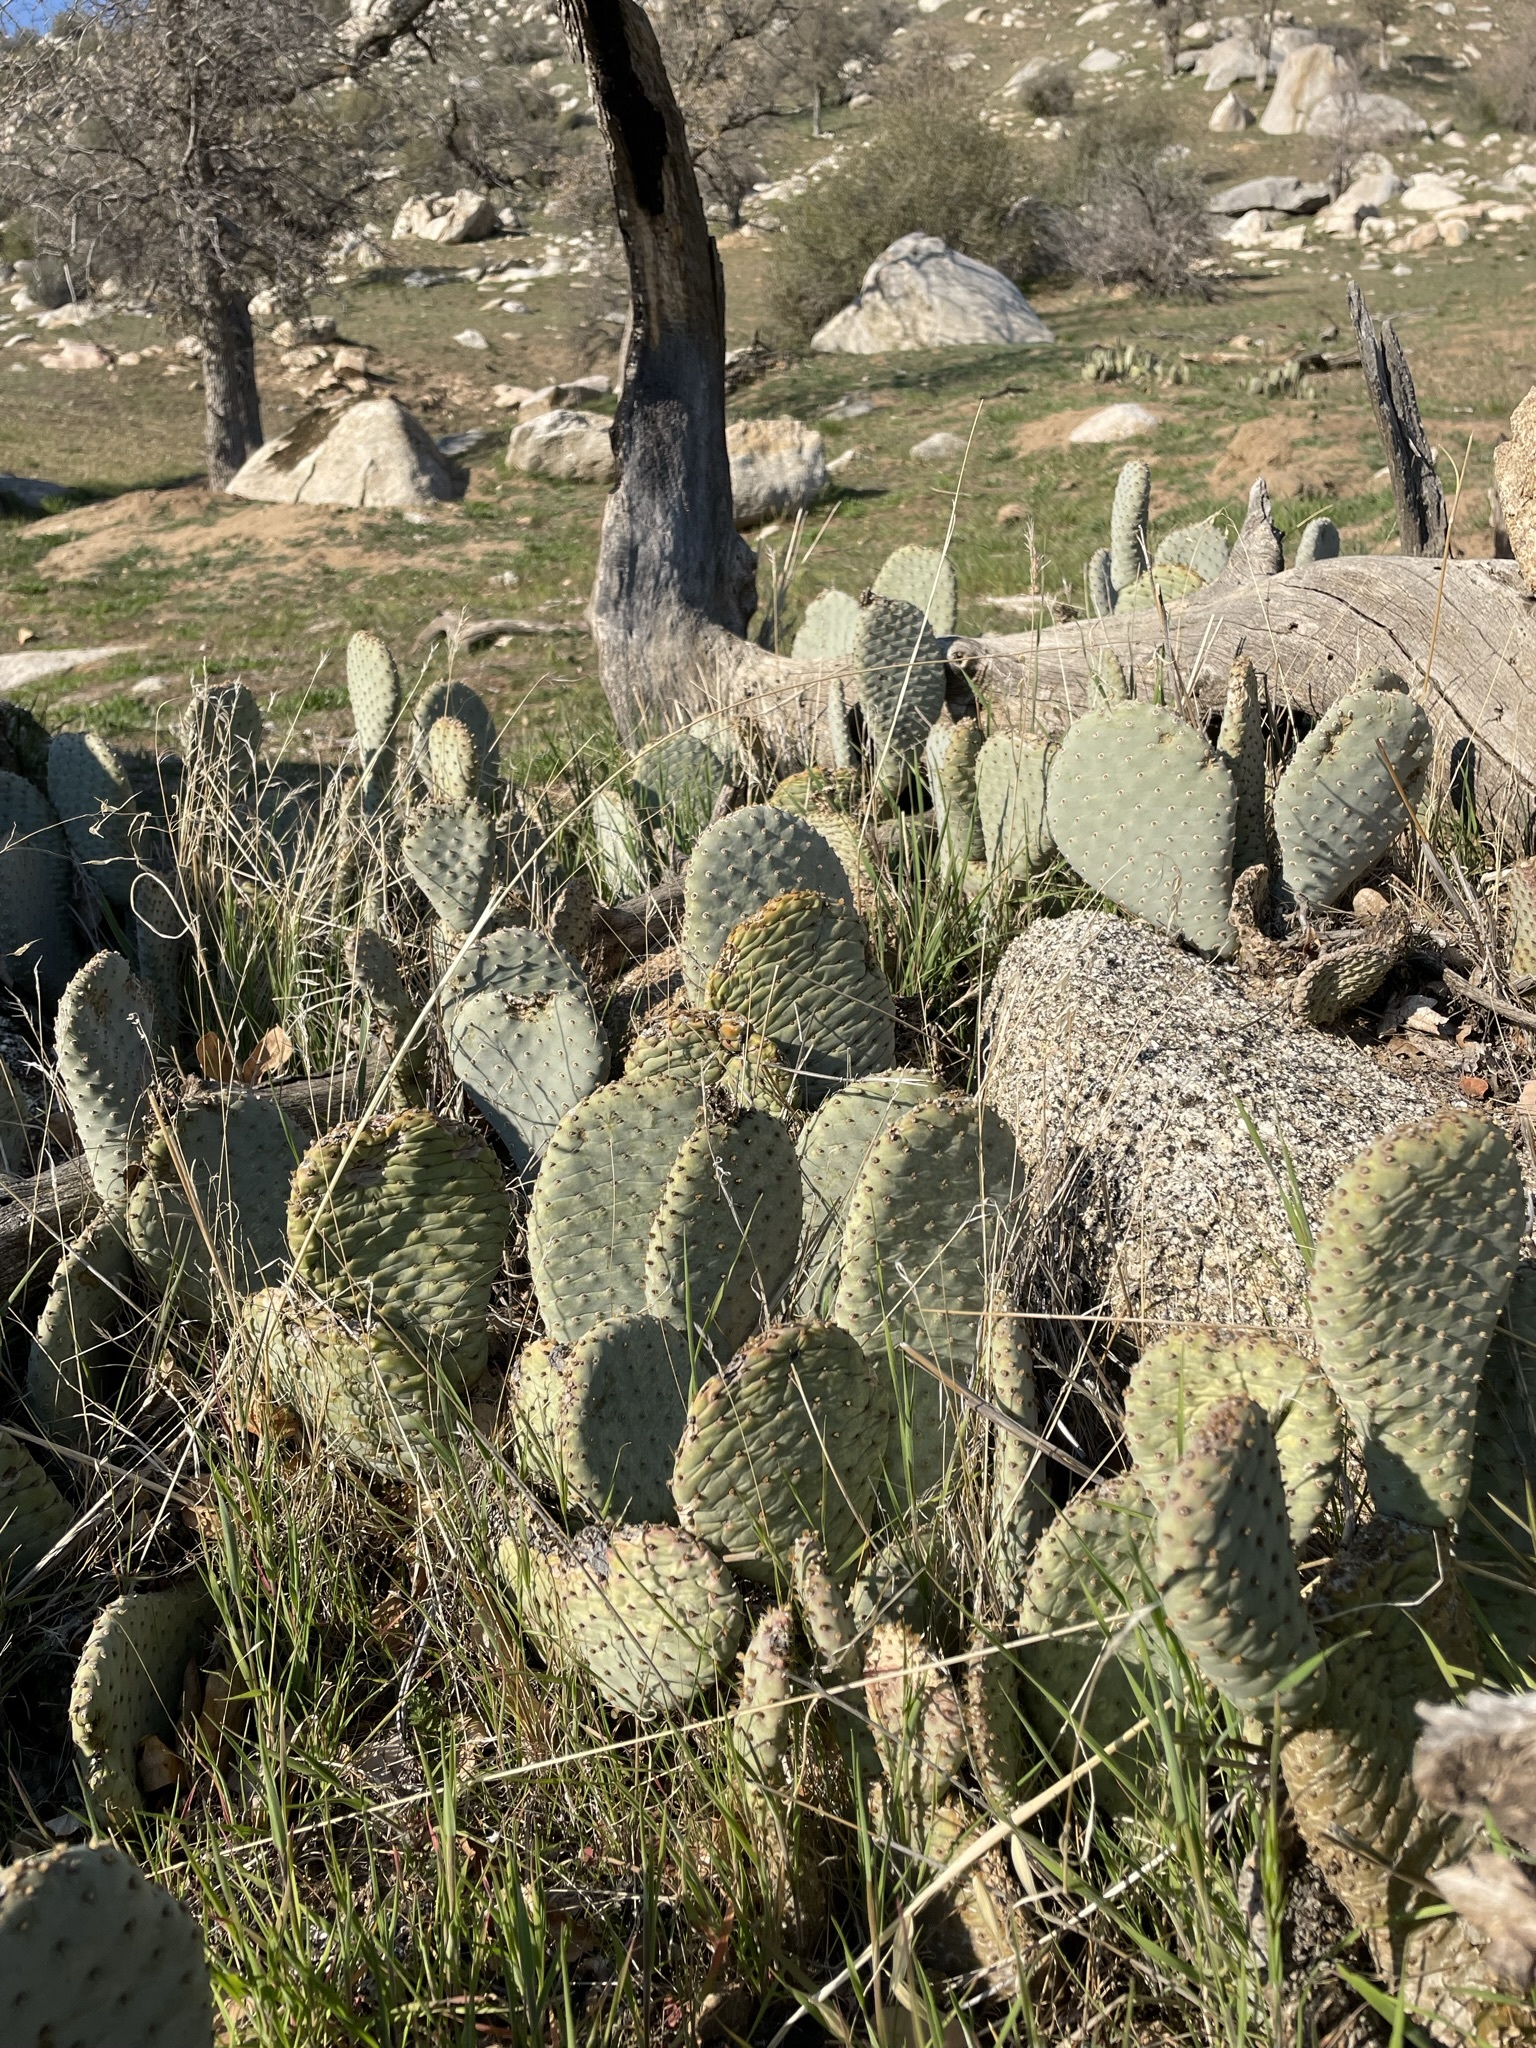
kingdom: Plantae
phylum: Tracheophyta
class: Magnoliopsida
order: Caryophyllales
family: Cactaceae
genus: Opuntia
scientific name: Opuntia basilaris
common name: Beavertail prickly-pear
